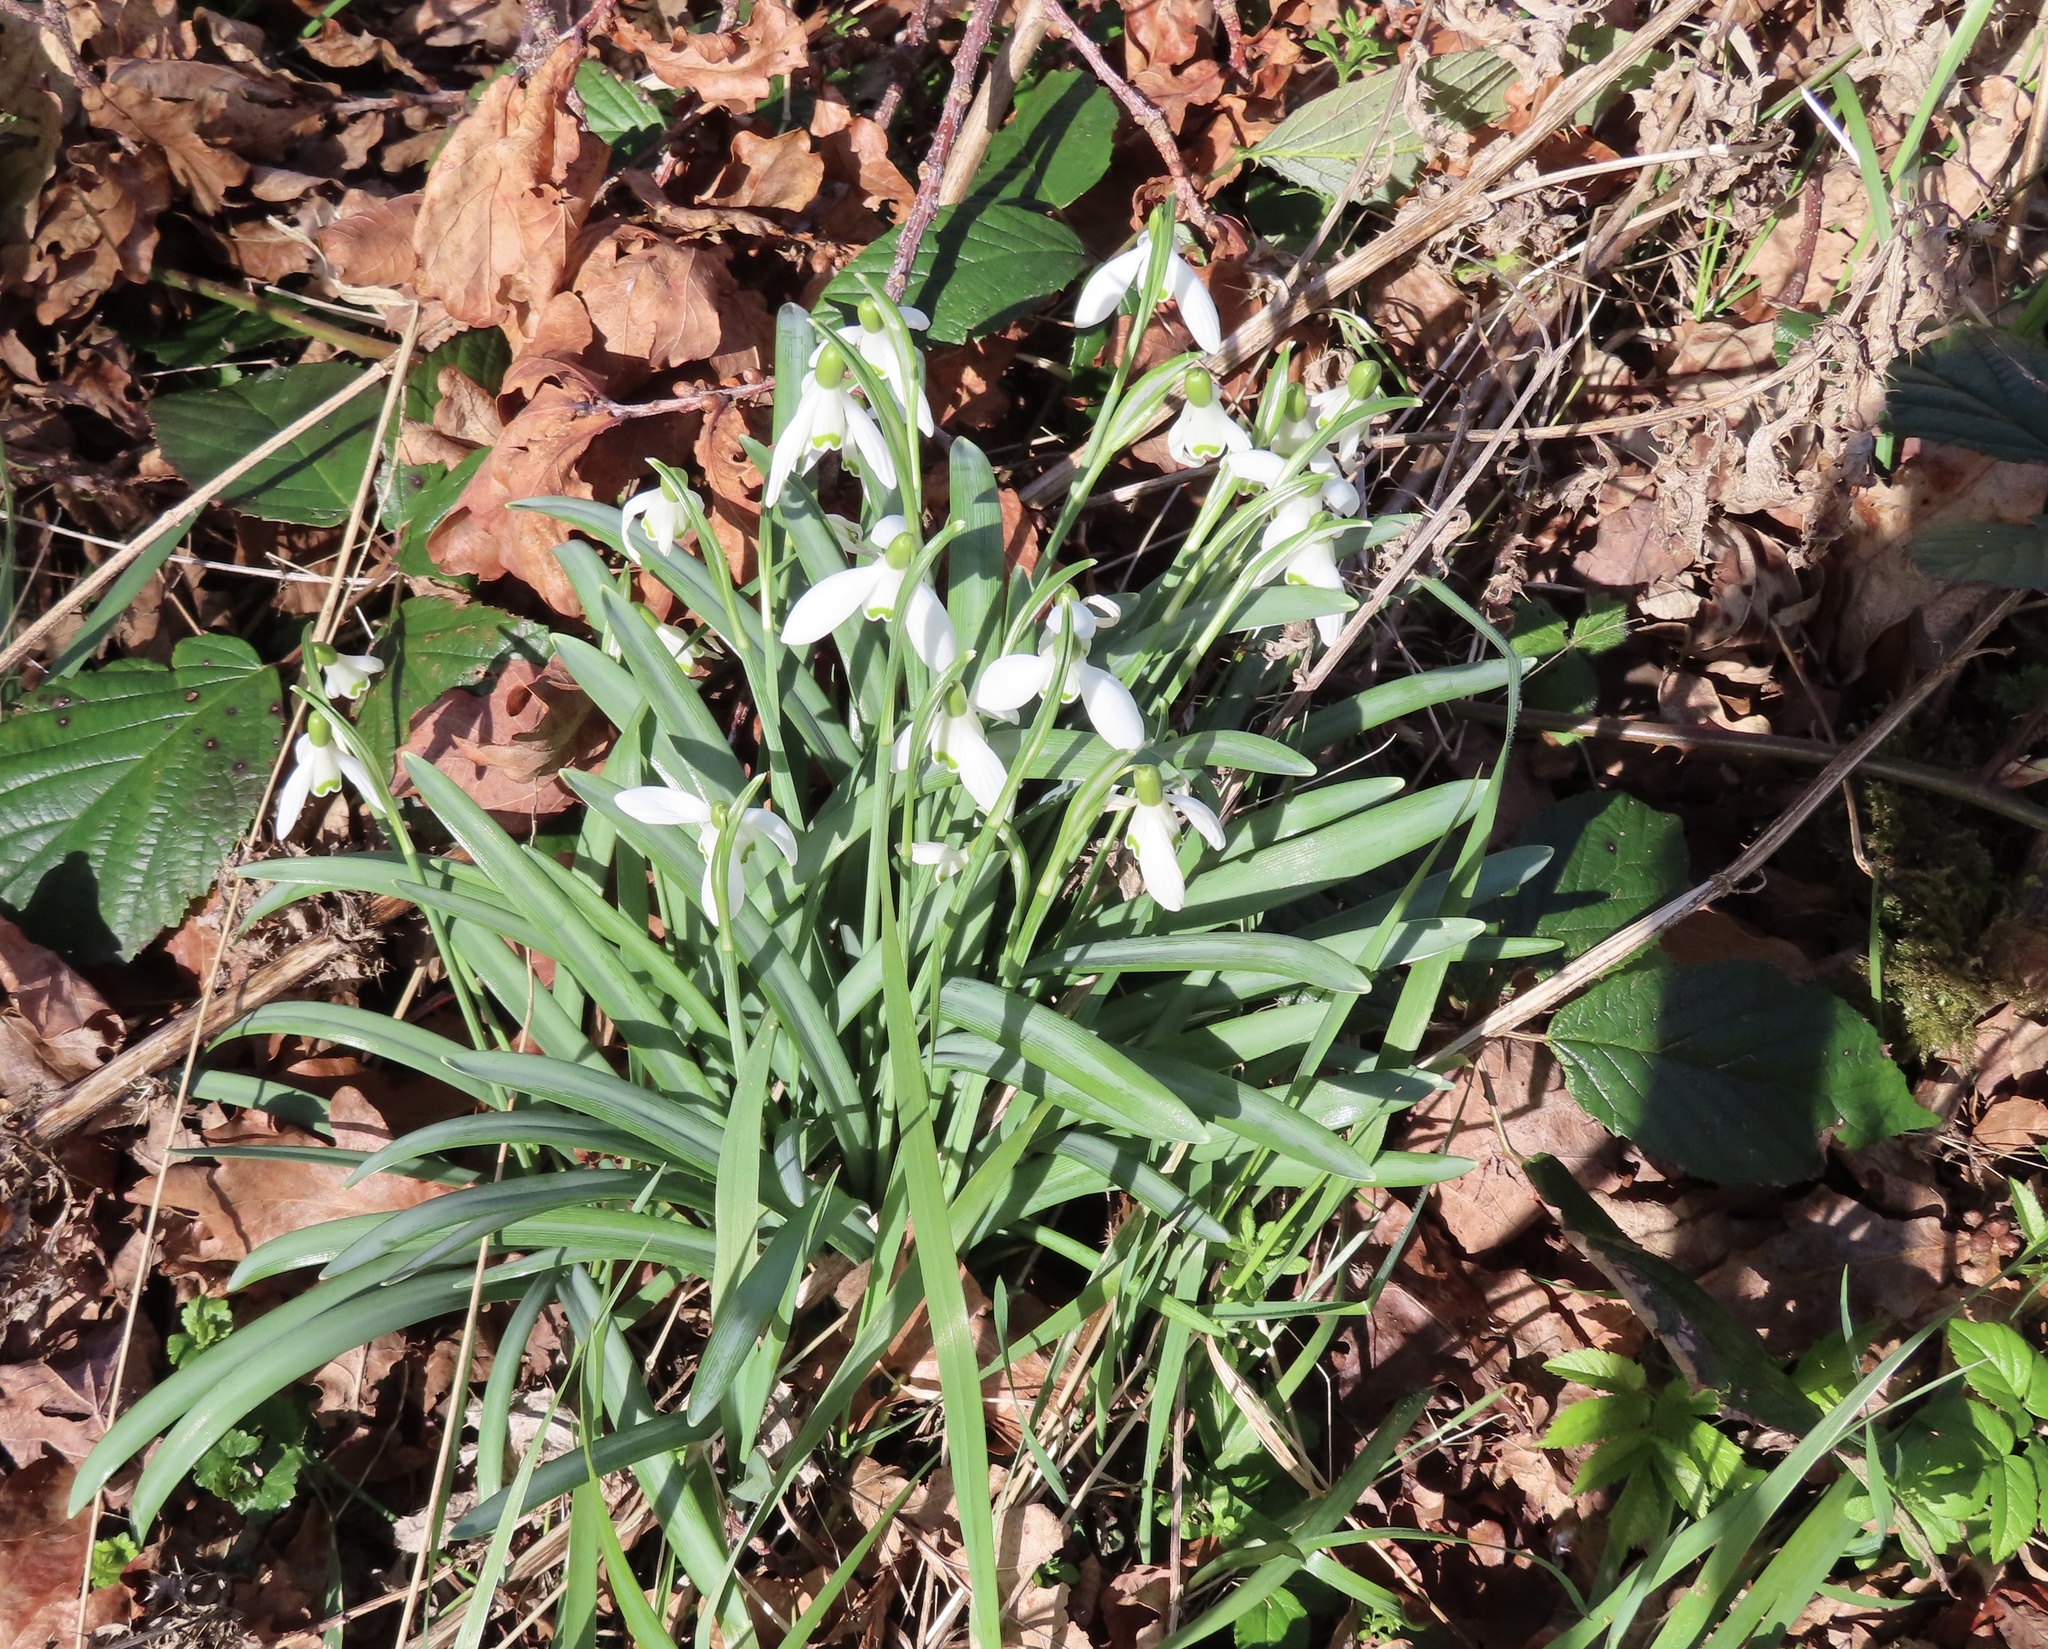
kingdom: Plantae
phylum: Tracheophyta
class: Liliopsida
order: Asparagales
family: Amaryllidaceae
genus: Galanthus
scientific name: Galanthus nivalis
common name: Snowdrop
